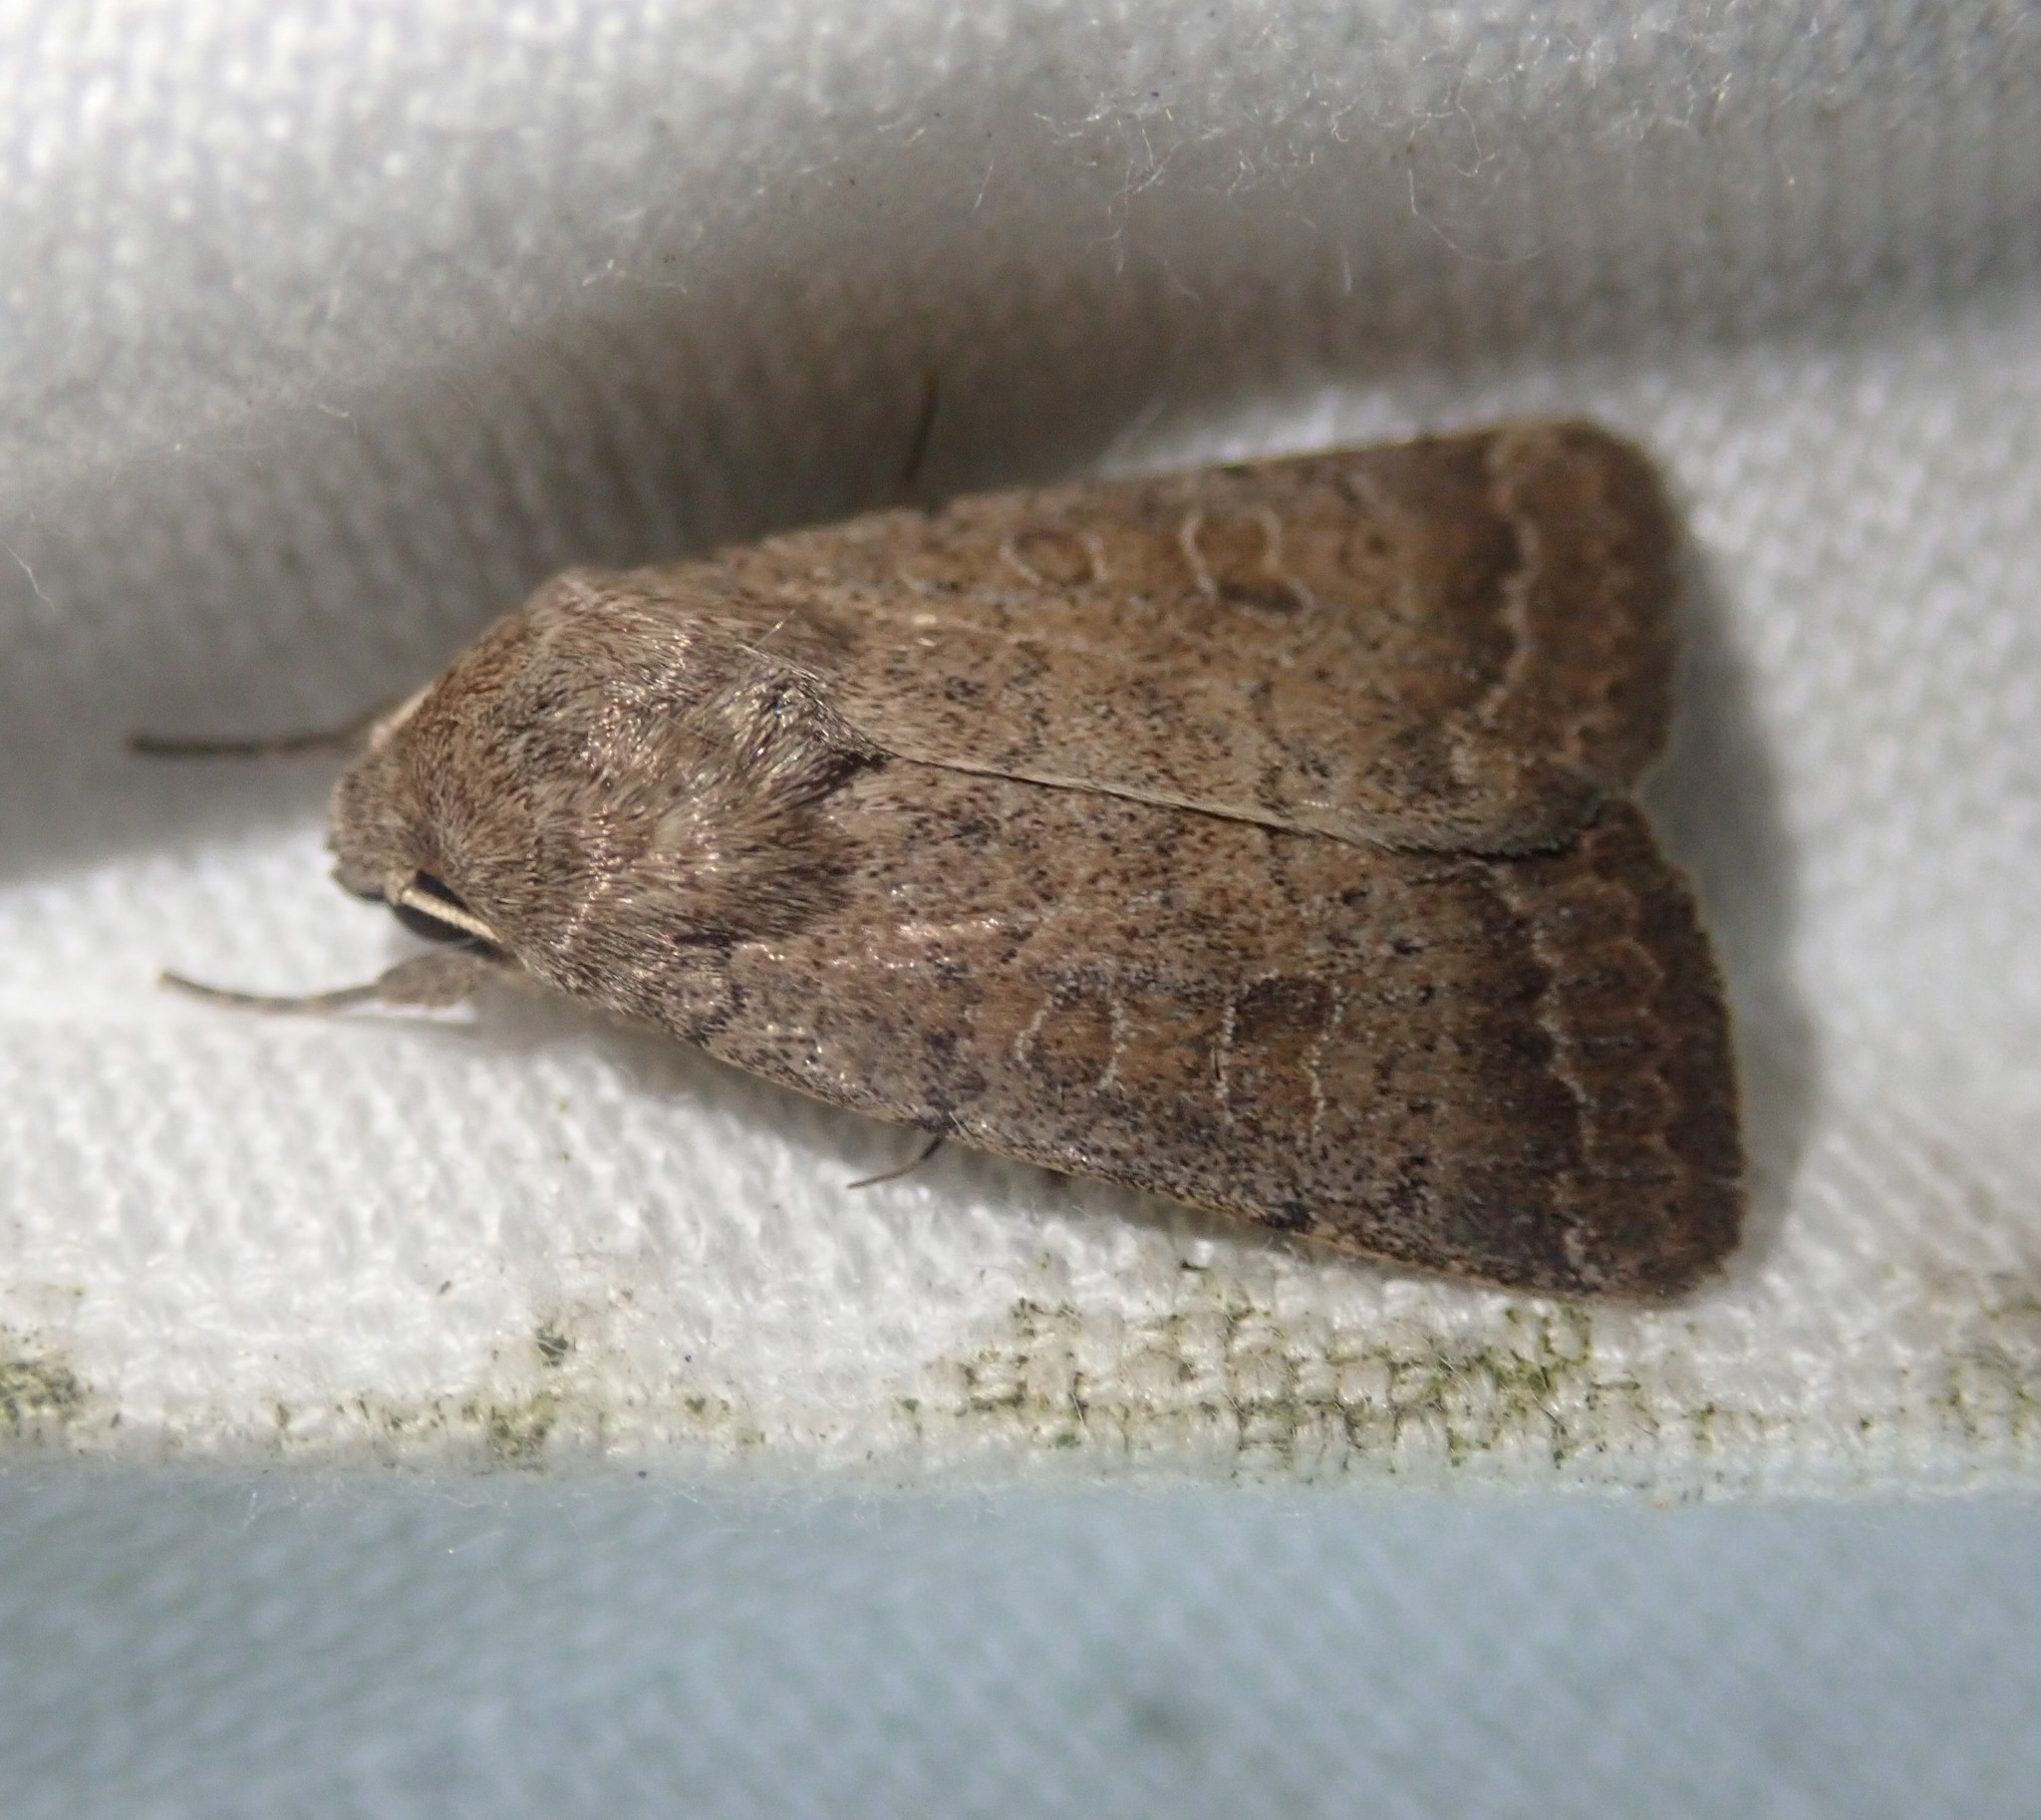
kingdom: Animalia
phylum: Arthropoda
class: Insecta
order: Lepidoptera
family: Noctuidae
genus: Hoplodrina
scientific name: Hoplodrina blanda
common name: Rustic
